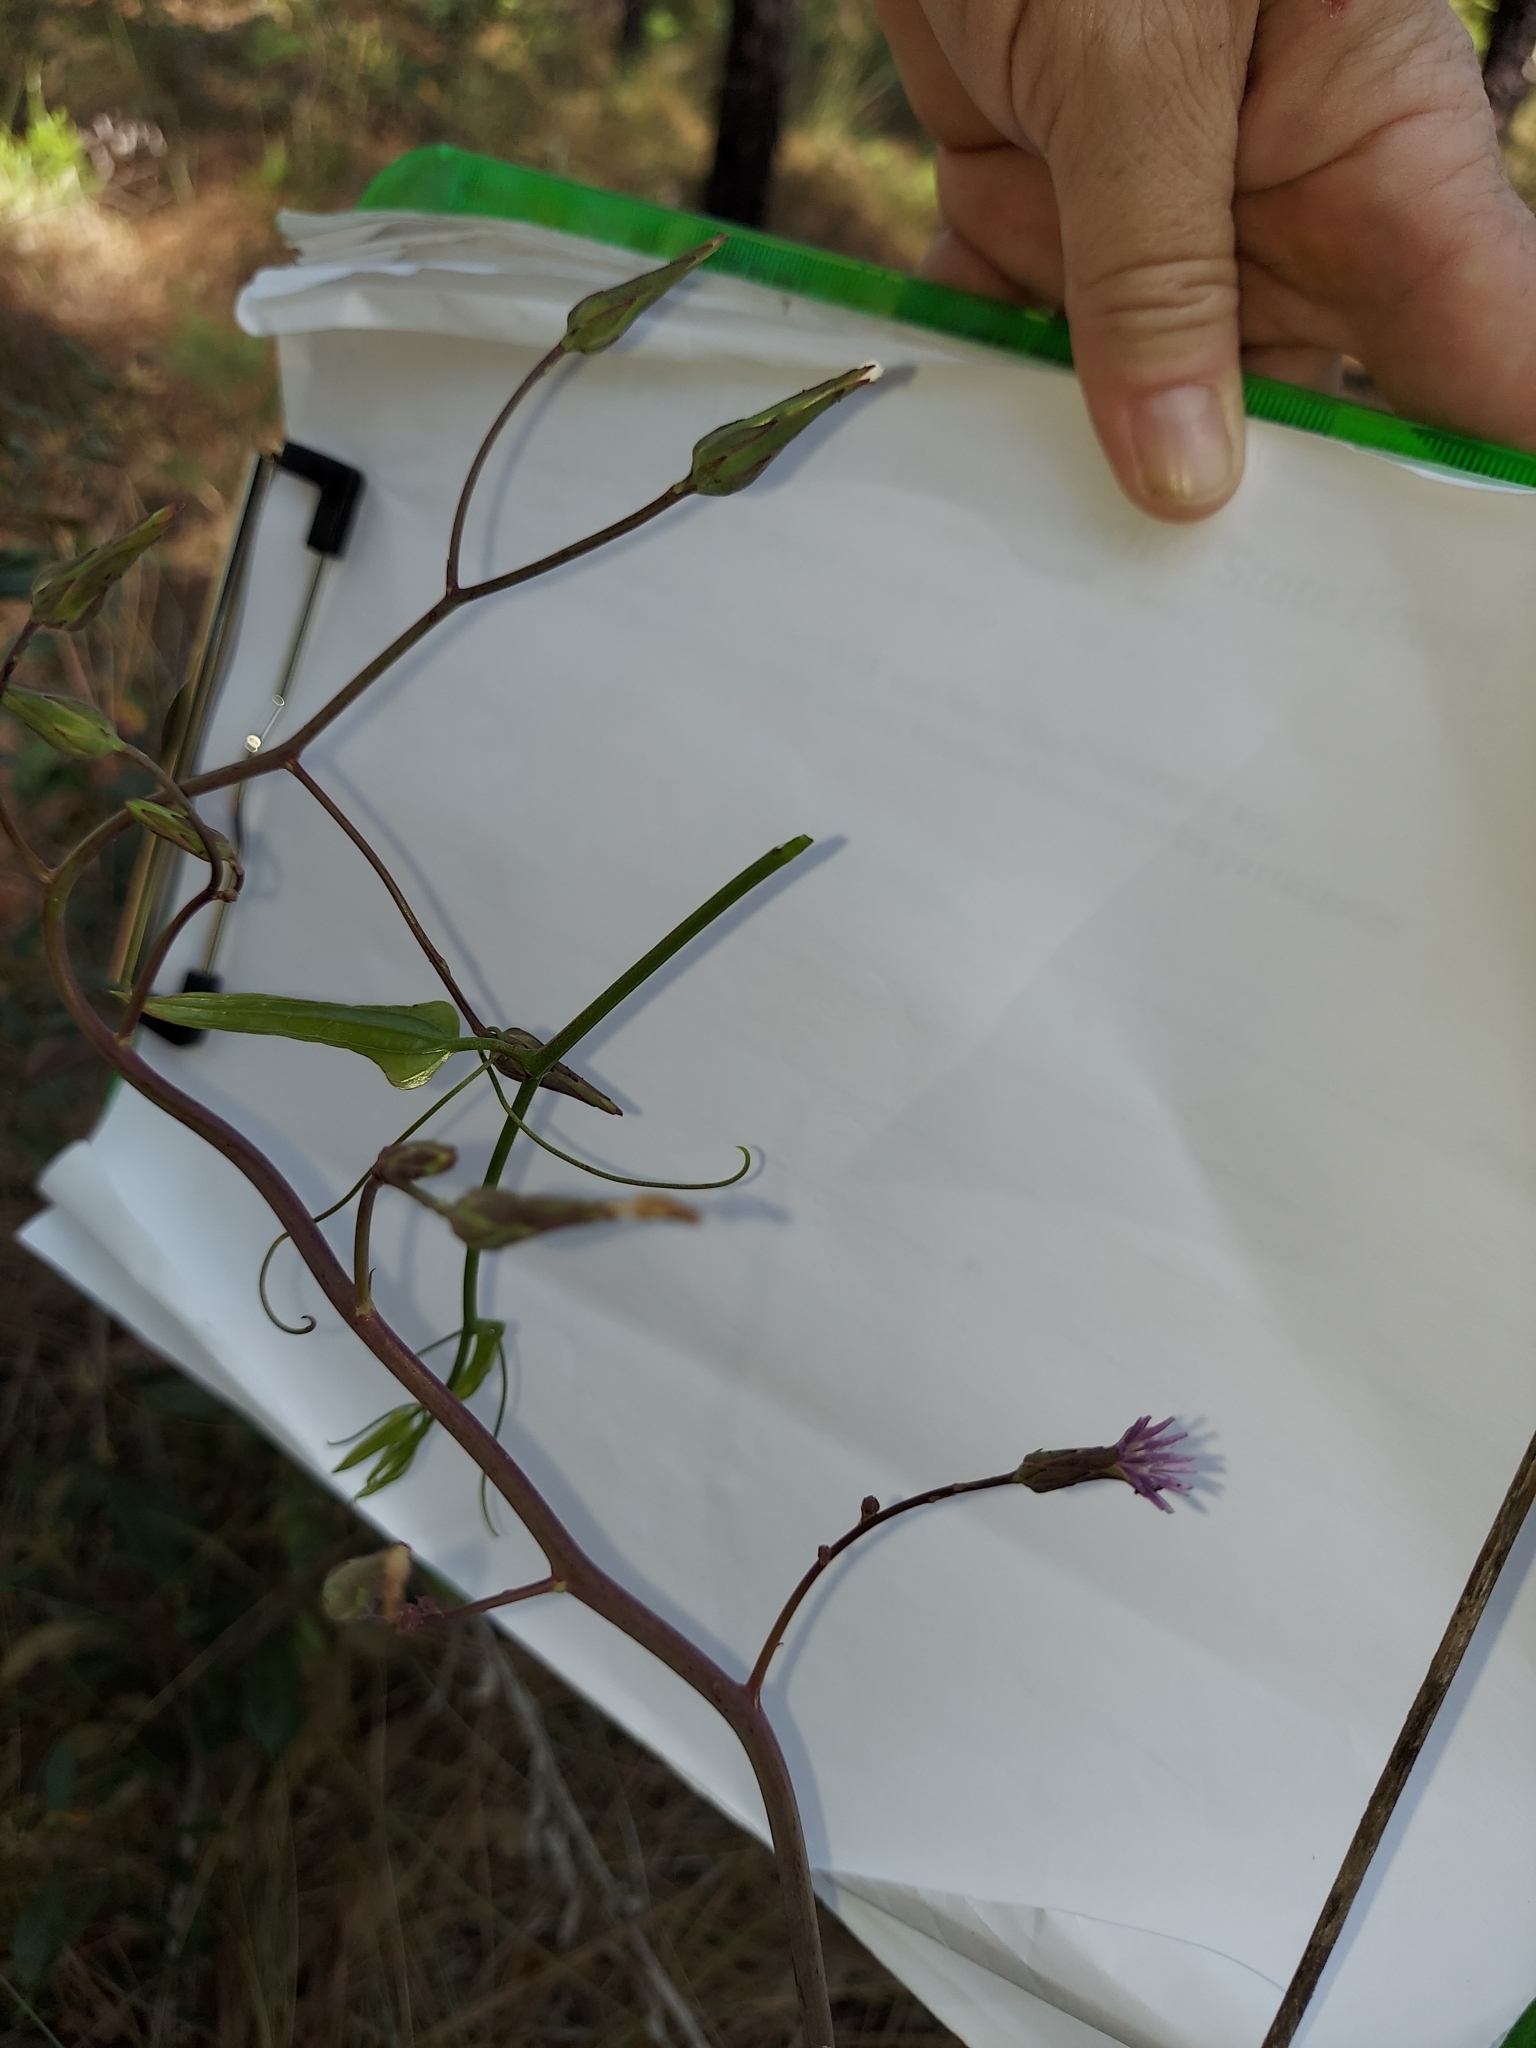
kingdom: Plantae
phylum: Tracheophyta
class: Magnoliopsida
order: Asterales
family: Asteraceae
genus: Lactuca
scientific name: Lactuca graminifolia
